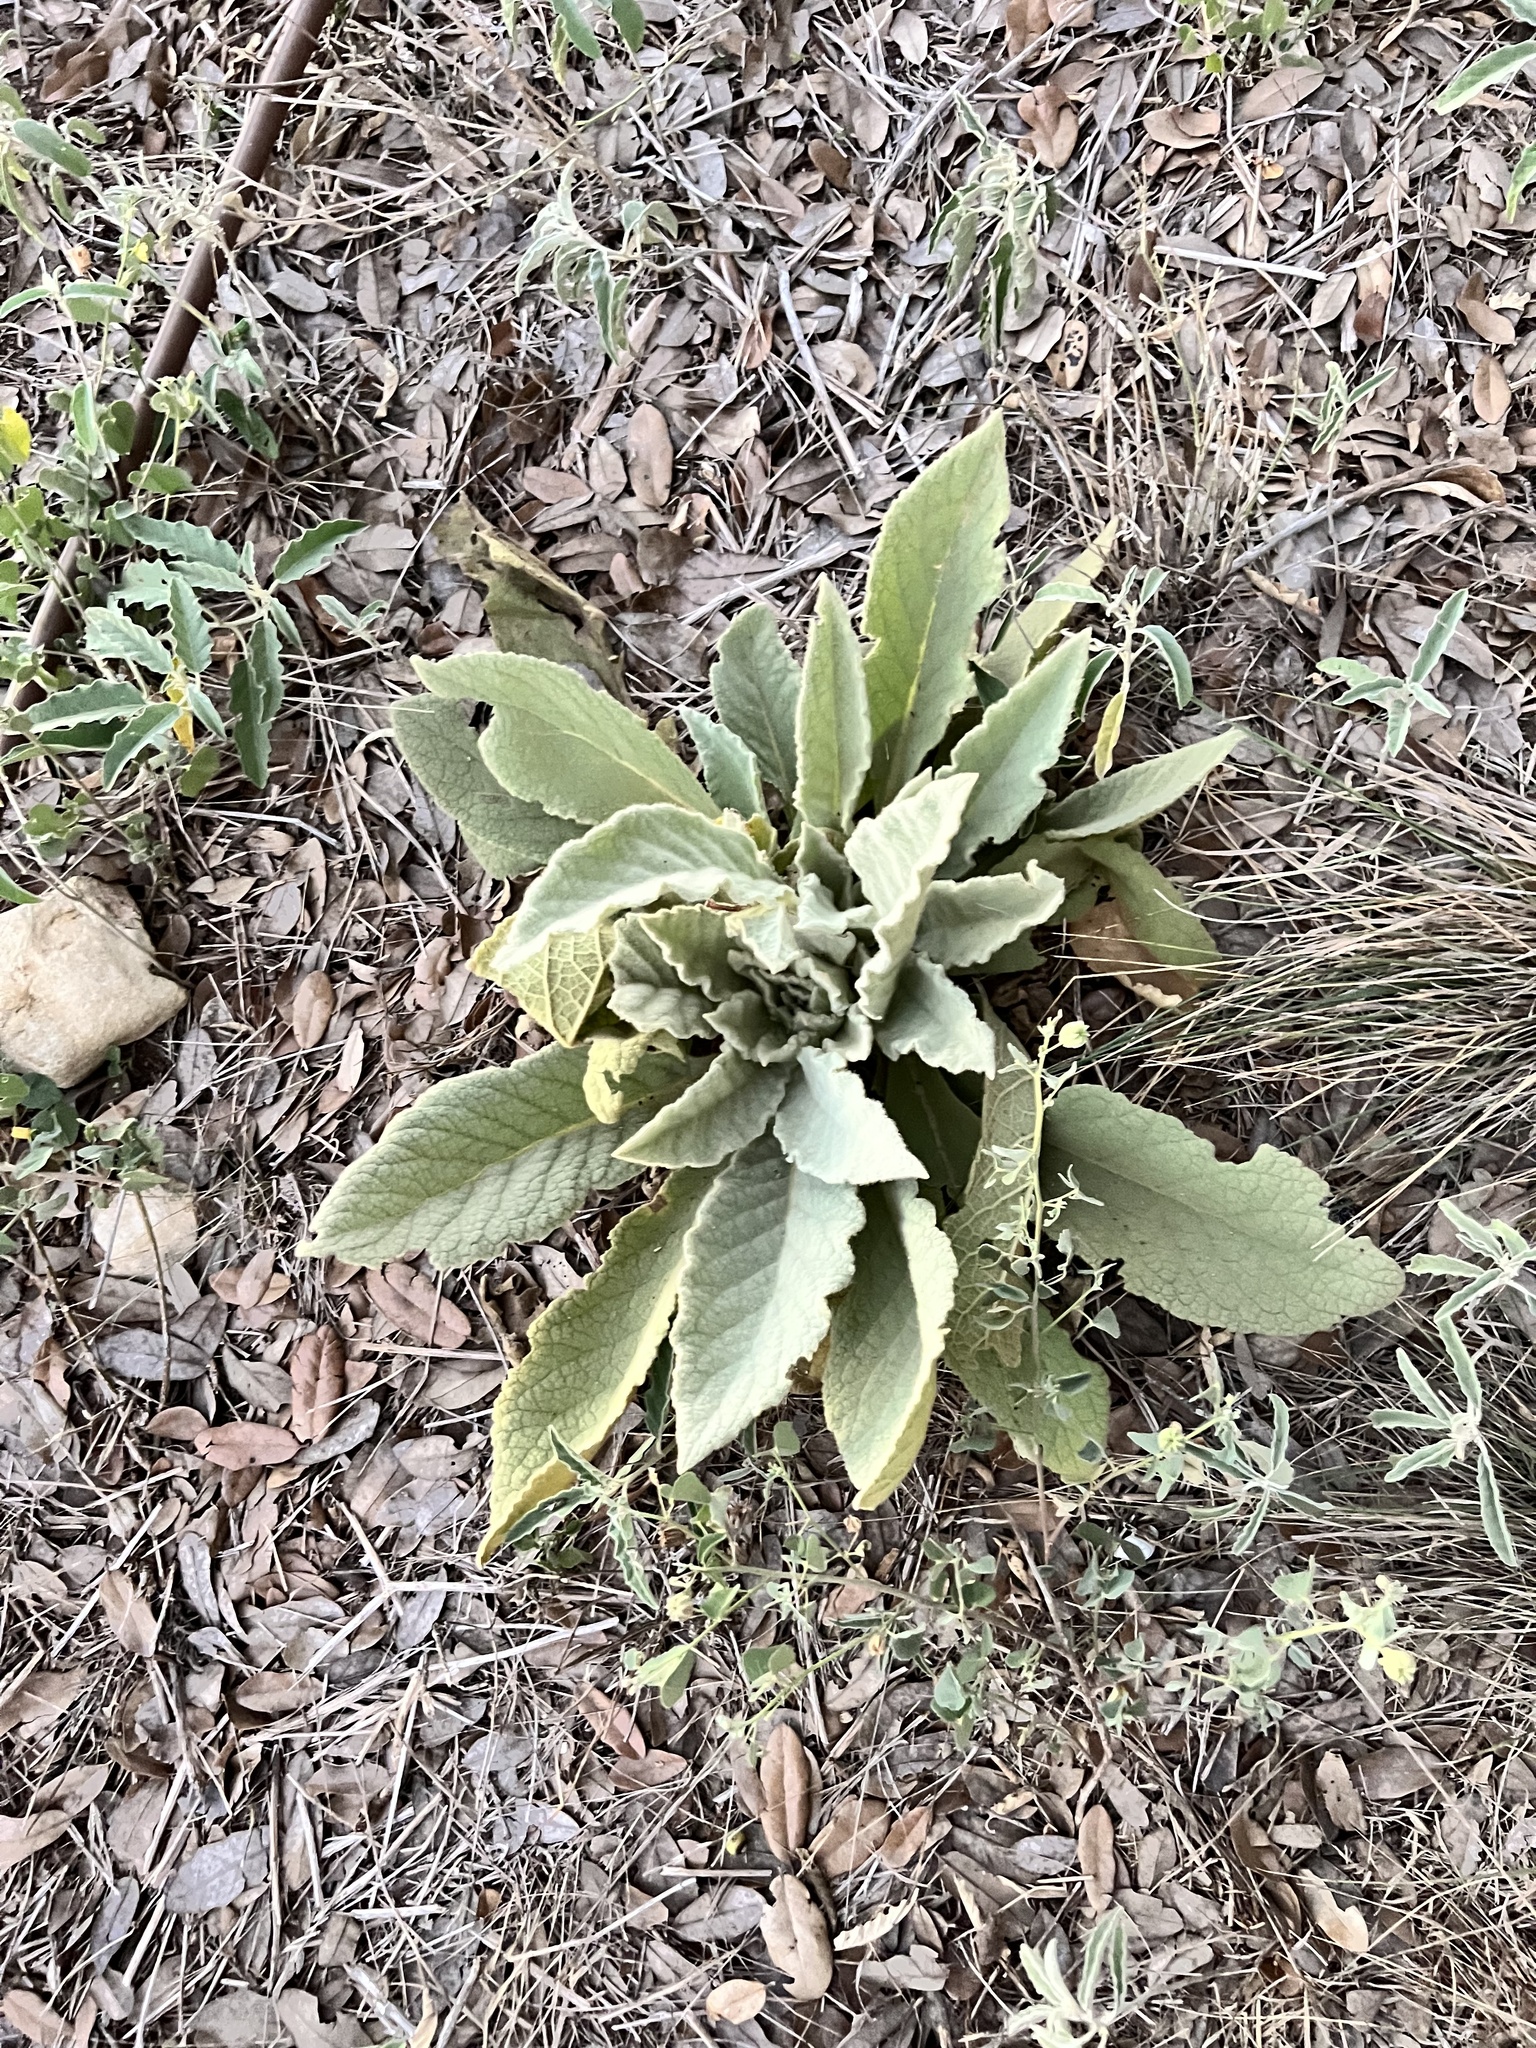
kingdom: Plantae
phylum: Tracheophyta
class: Magnoliopsida
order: Lamiales
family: Scrophulariaceae
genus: Verbascum
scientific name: Verbascum thapsus
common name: Common mullein
